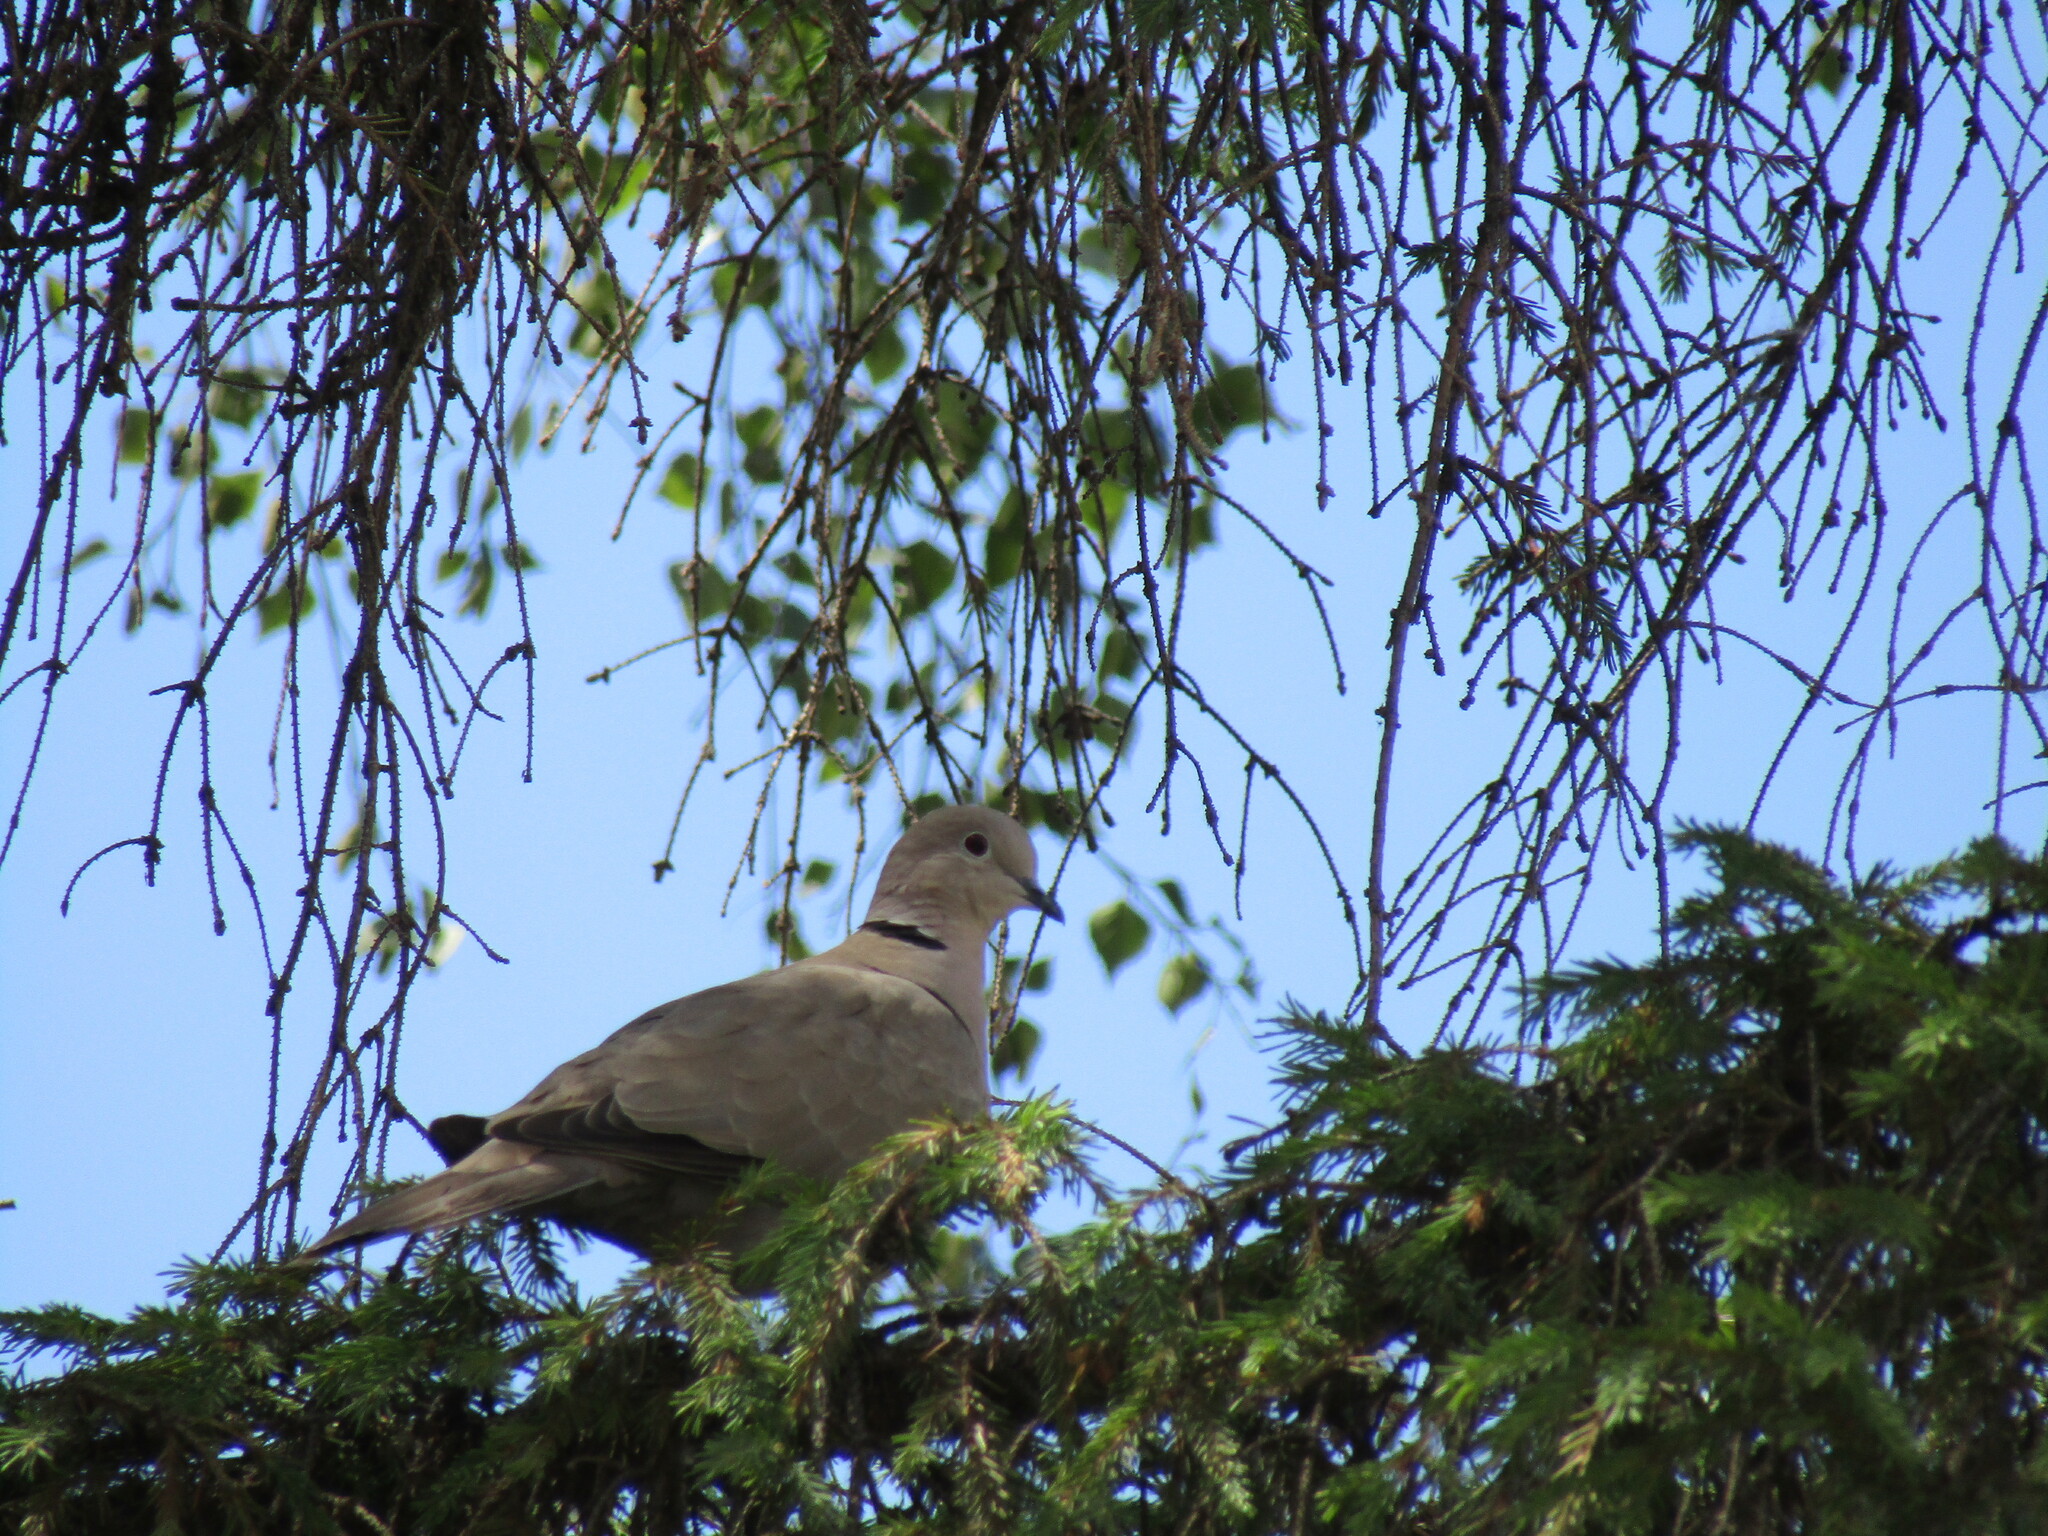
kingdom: Animalia
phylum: Chordata
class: Aves
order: Columbiformes
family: Columbidae
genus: Streptopelia
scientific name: Streptopelia decaocto
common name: Eurasian collared dove
